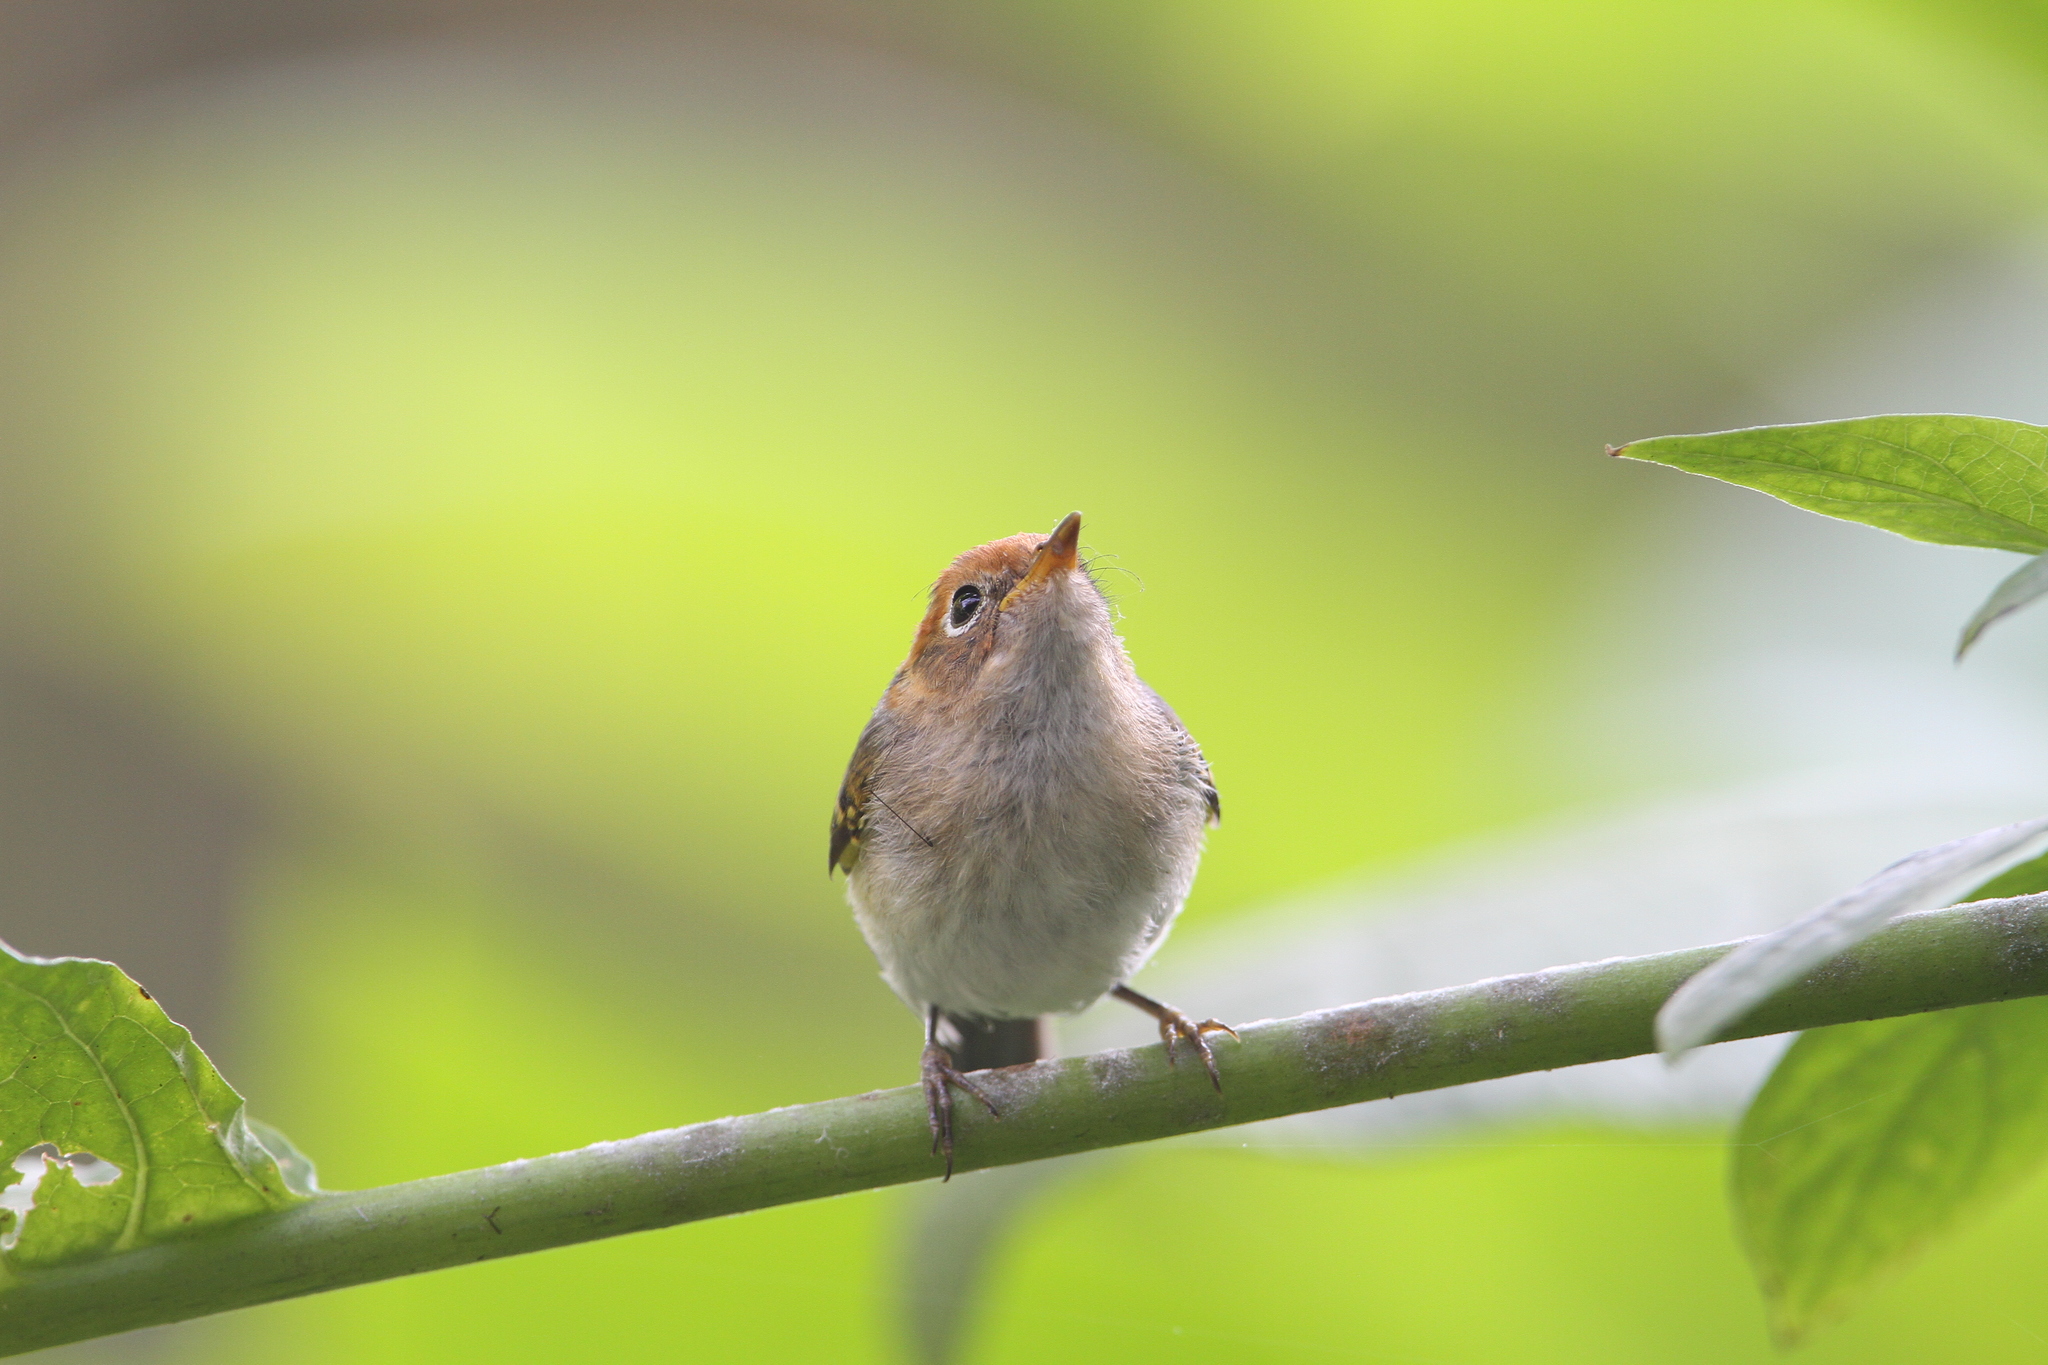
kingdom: Animalia
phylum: Chordata
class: Aves
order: Passeriformes
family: Phylloscopidae
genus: Seicercus
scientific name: Seicercus grammiceps
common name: Sunda warbler
